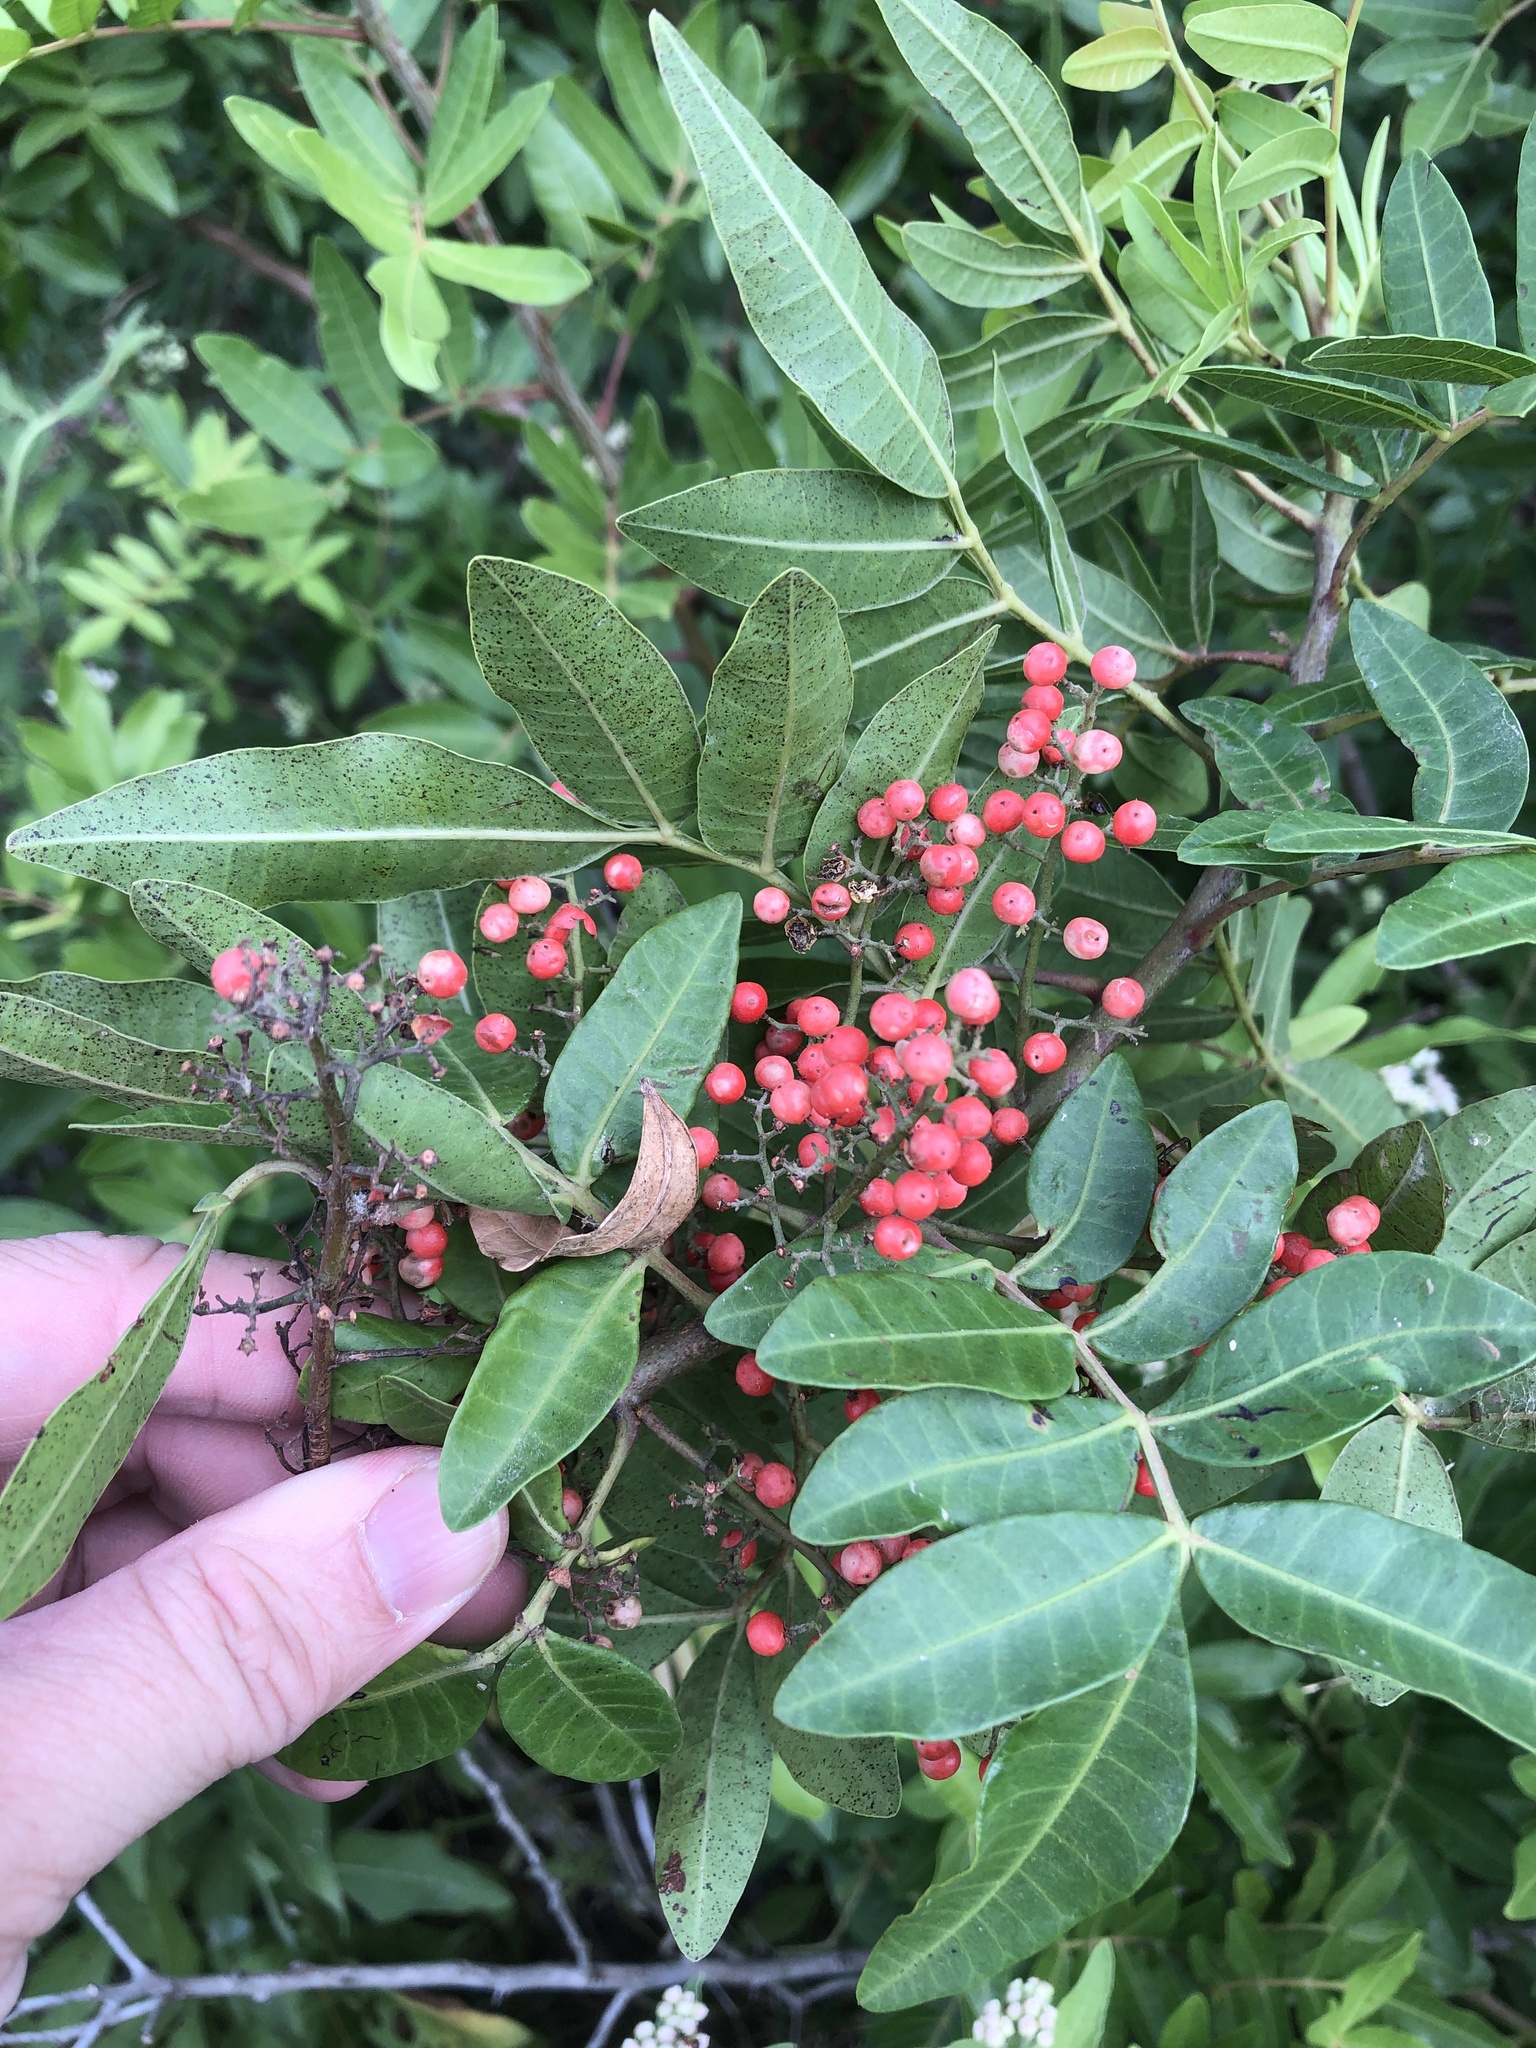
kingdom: Plantae
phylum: Tracheophyta
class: Magnoliopsida
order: Sapindales
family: Anacardiaceae
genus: Schinus
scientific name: Schinus terebinthifolia
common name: Brazilian peppertree
